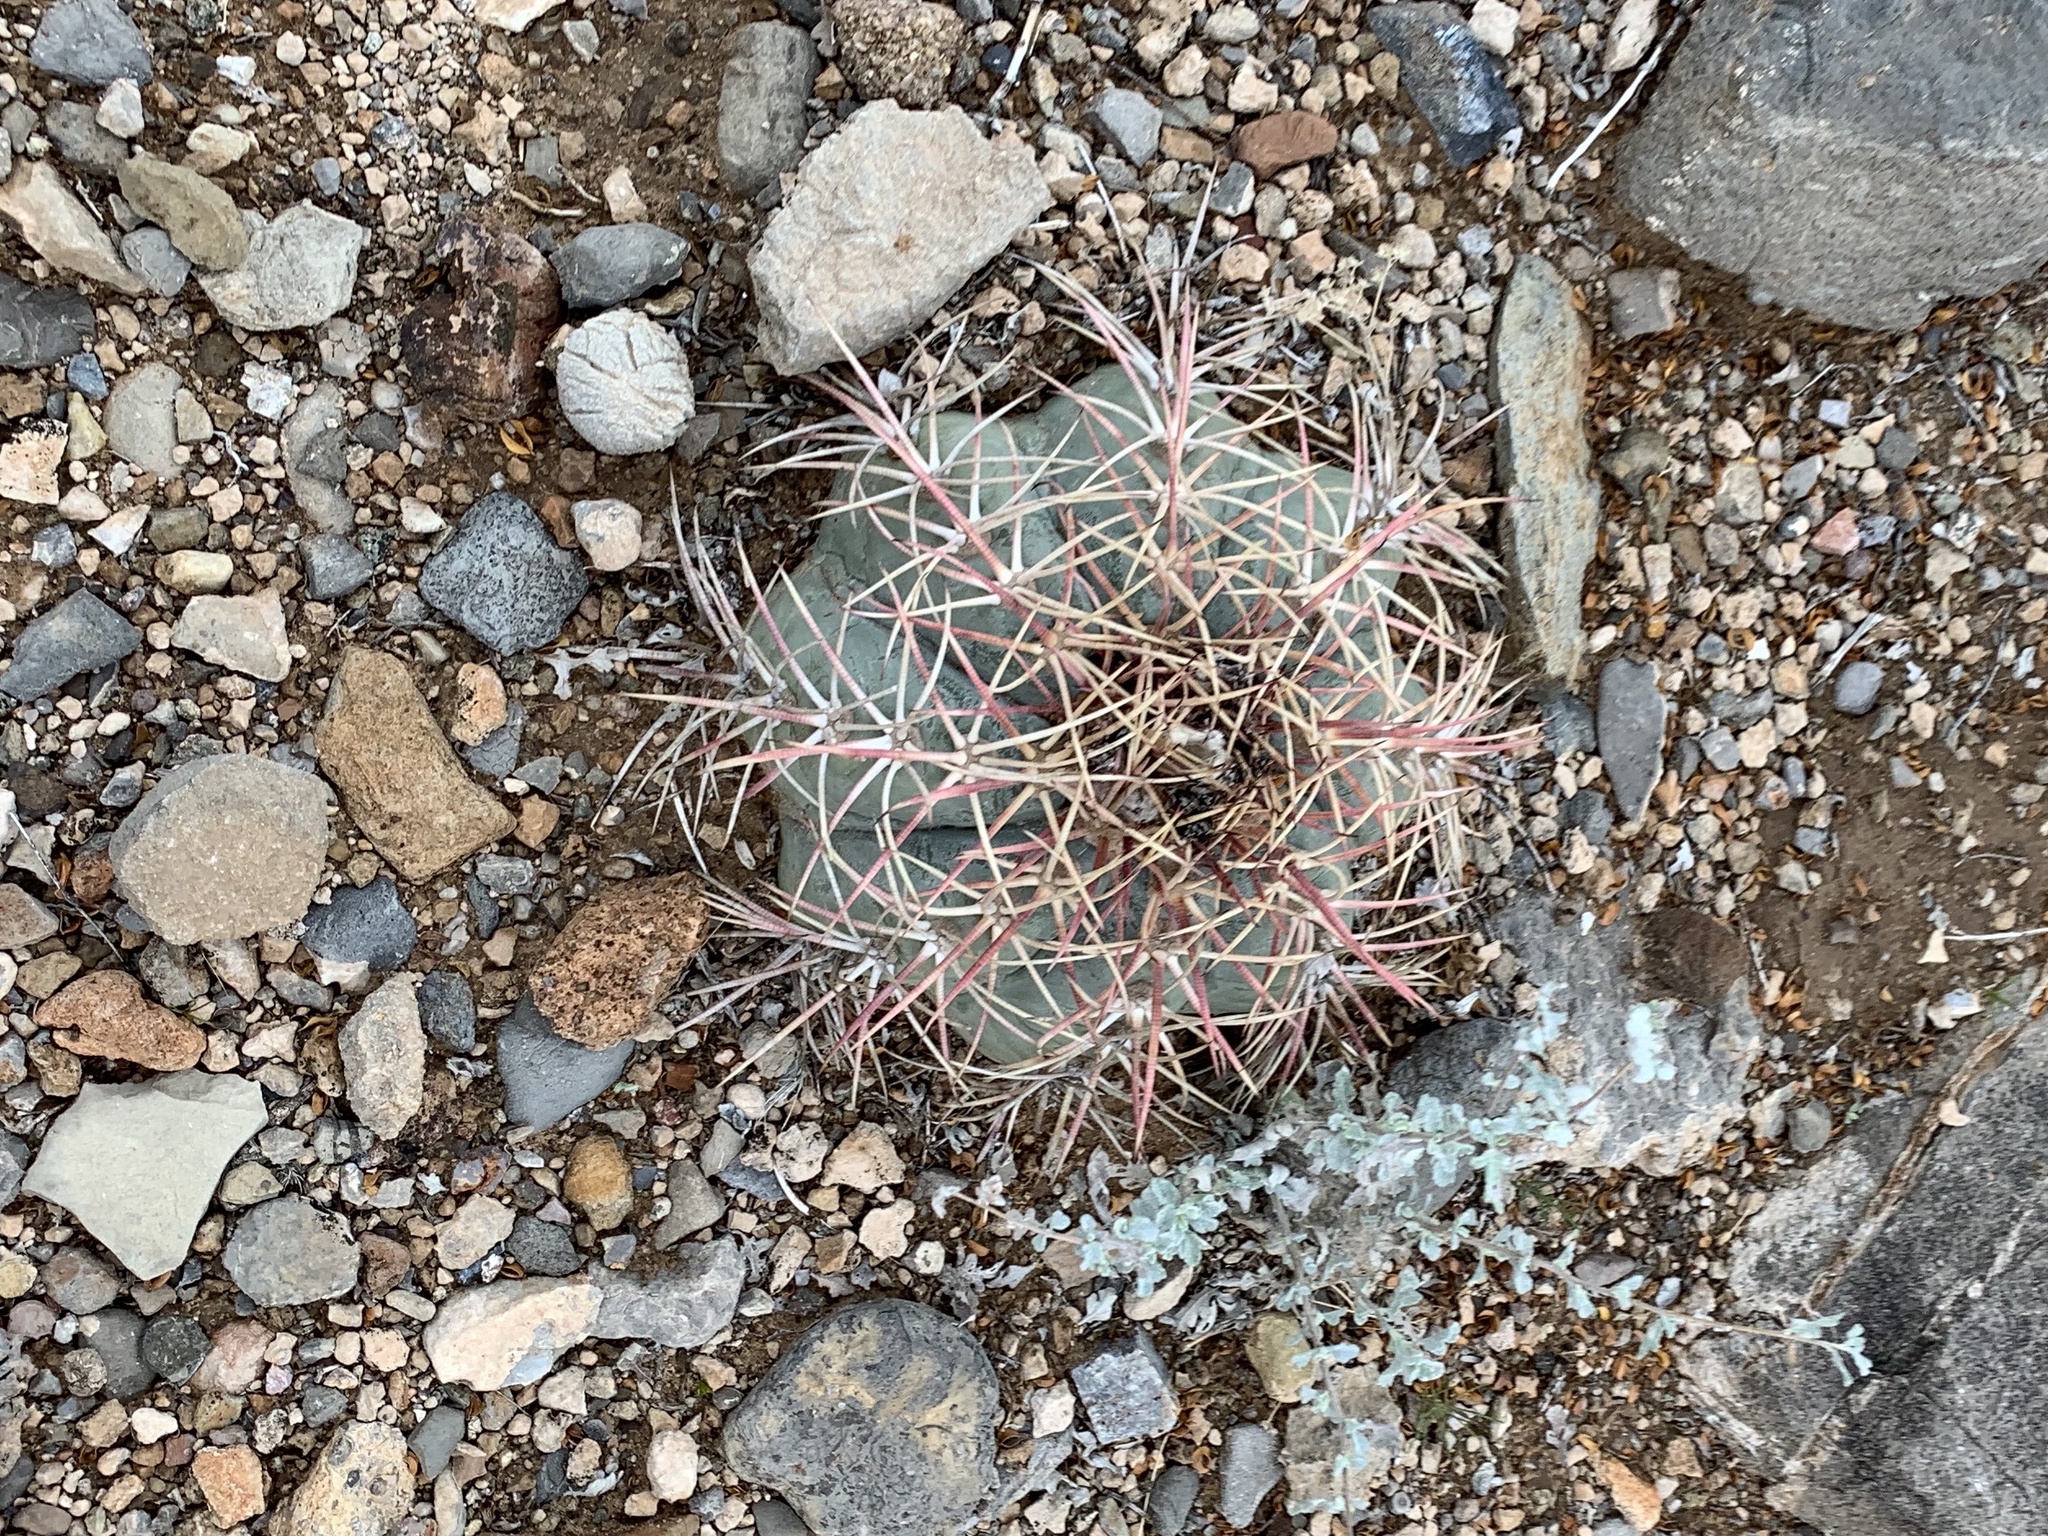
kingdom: Plantae
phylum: Tracheophyta
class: Magnoliopsida
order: Caryophyllales
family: Cactaceae
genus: Echinocactus
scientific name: Echinocactus horizonthalonius
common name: Devilshead
